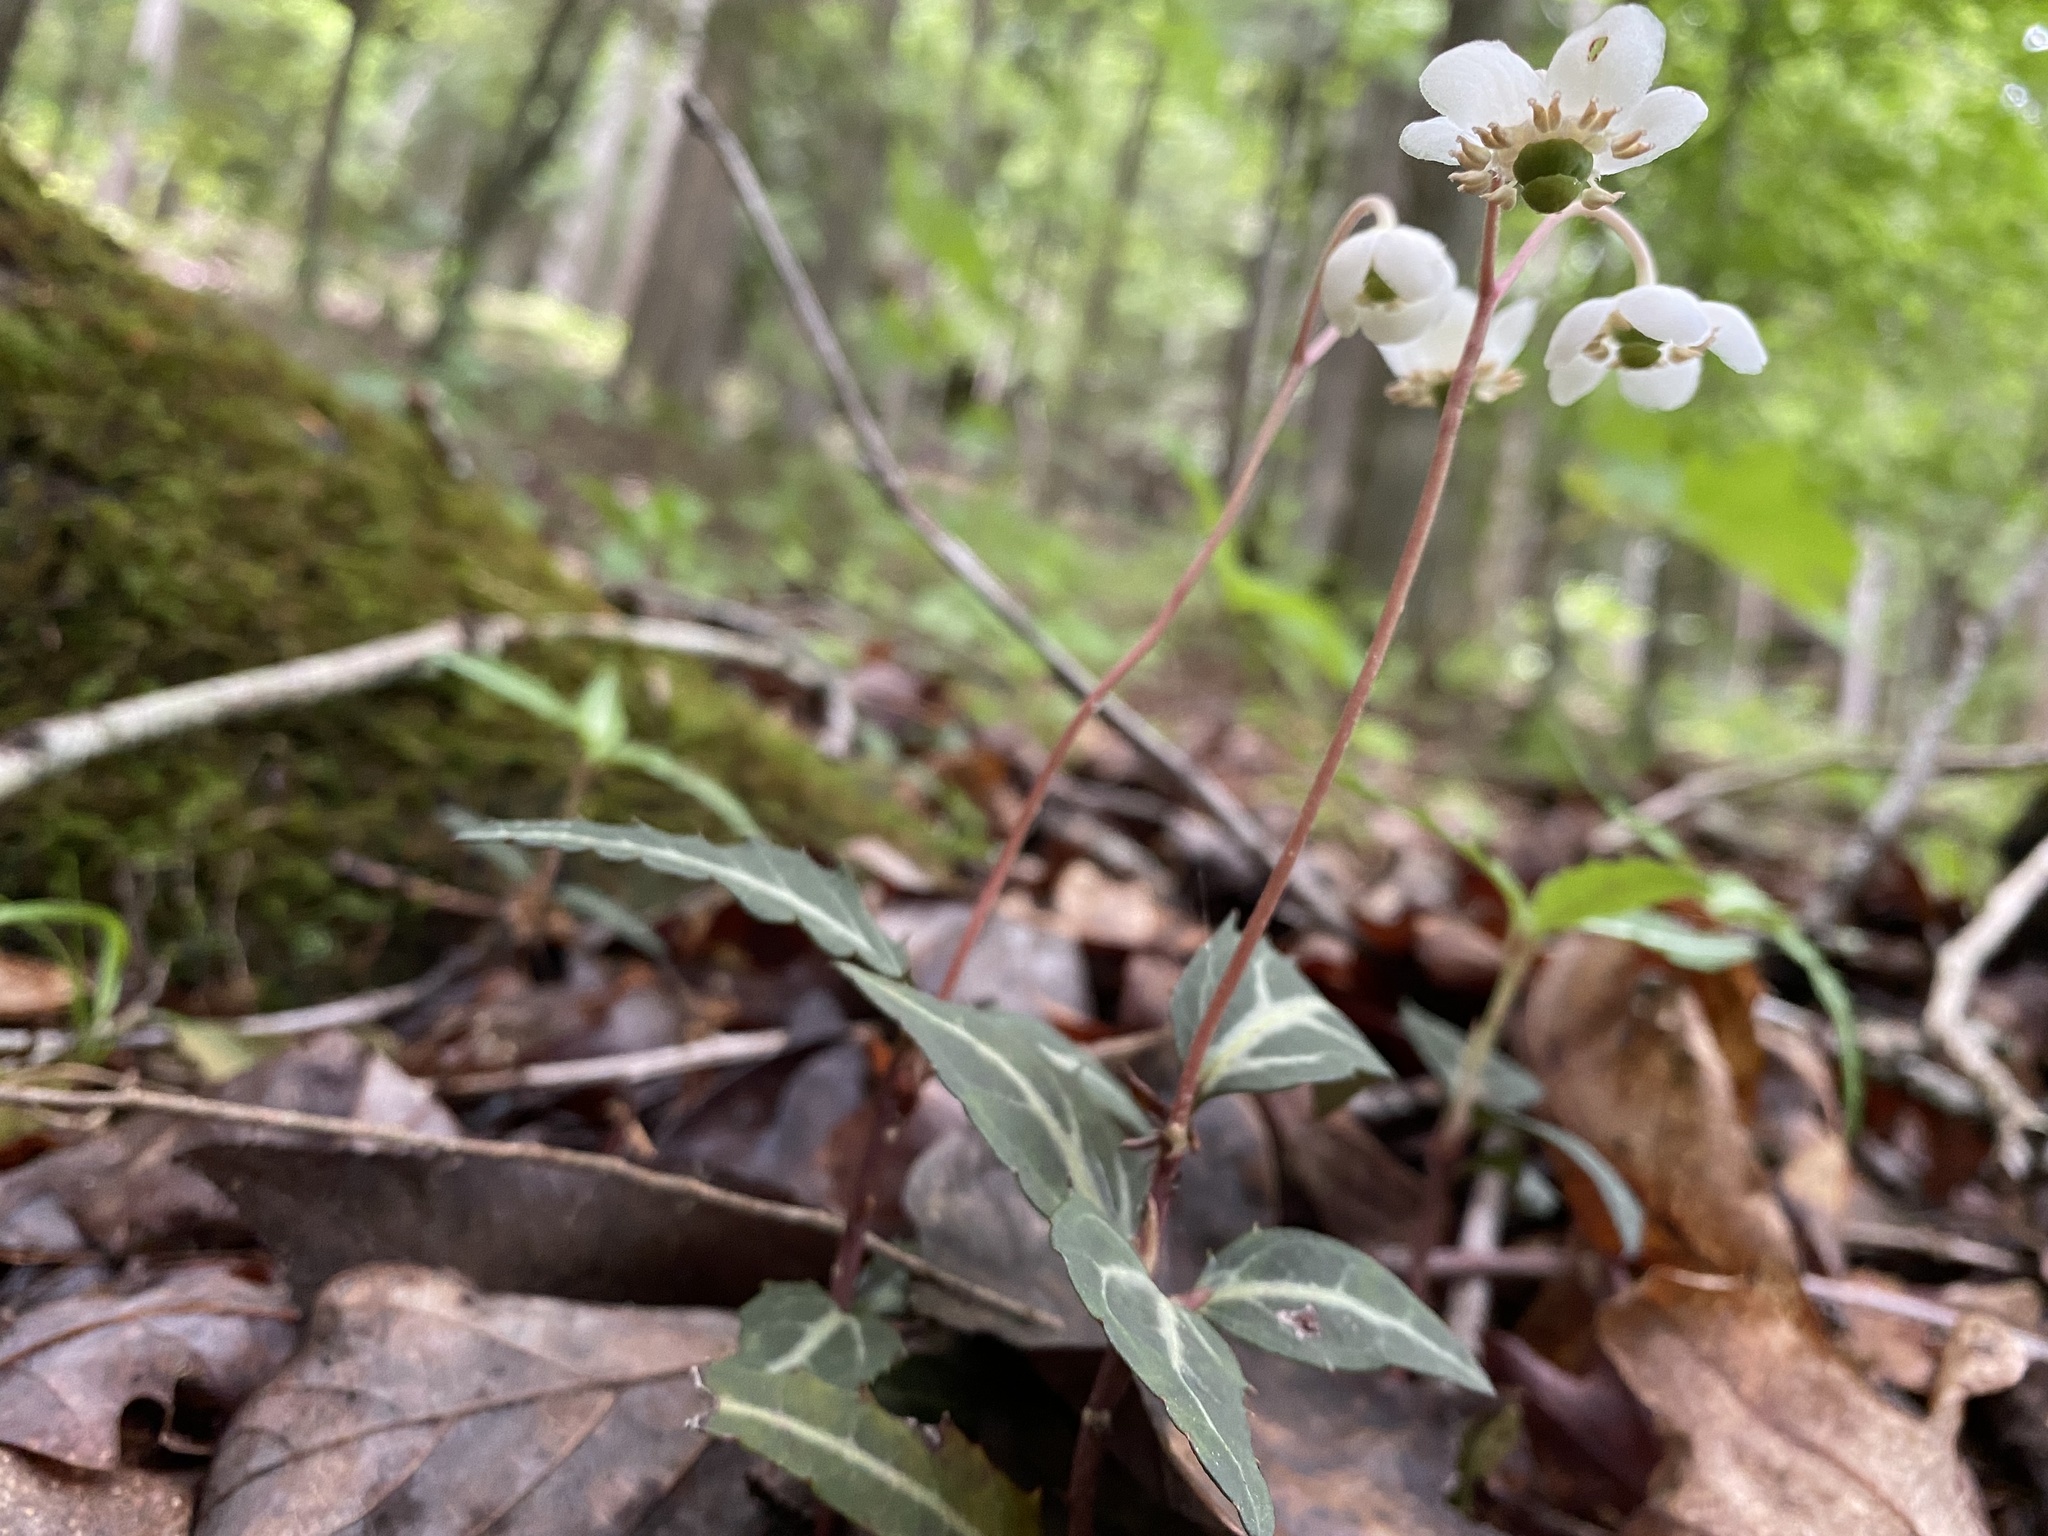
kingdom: Plantae
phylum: Tracheophyta
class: Magnoliopsida
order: Ericales
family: Ericaceae
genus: Chimaphila
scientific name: Chimaphila maculata
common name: Spotted pipsissewa
